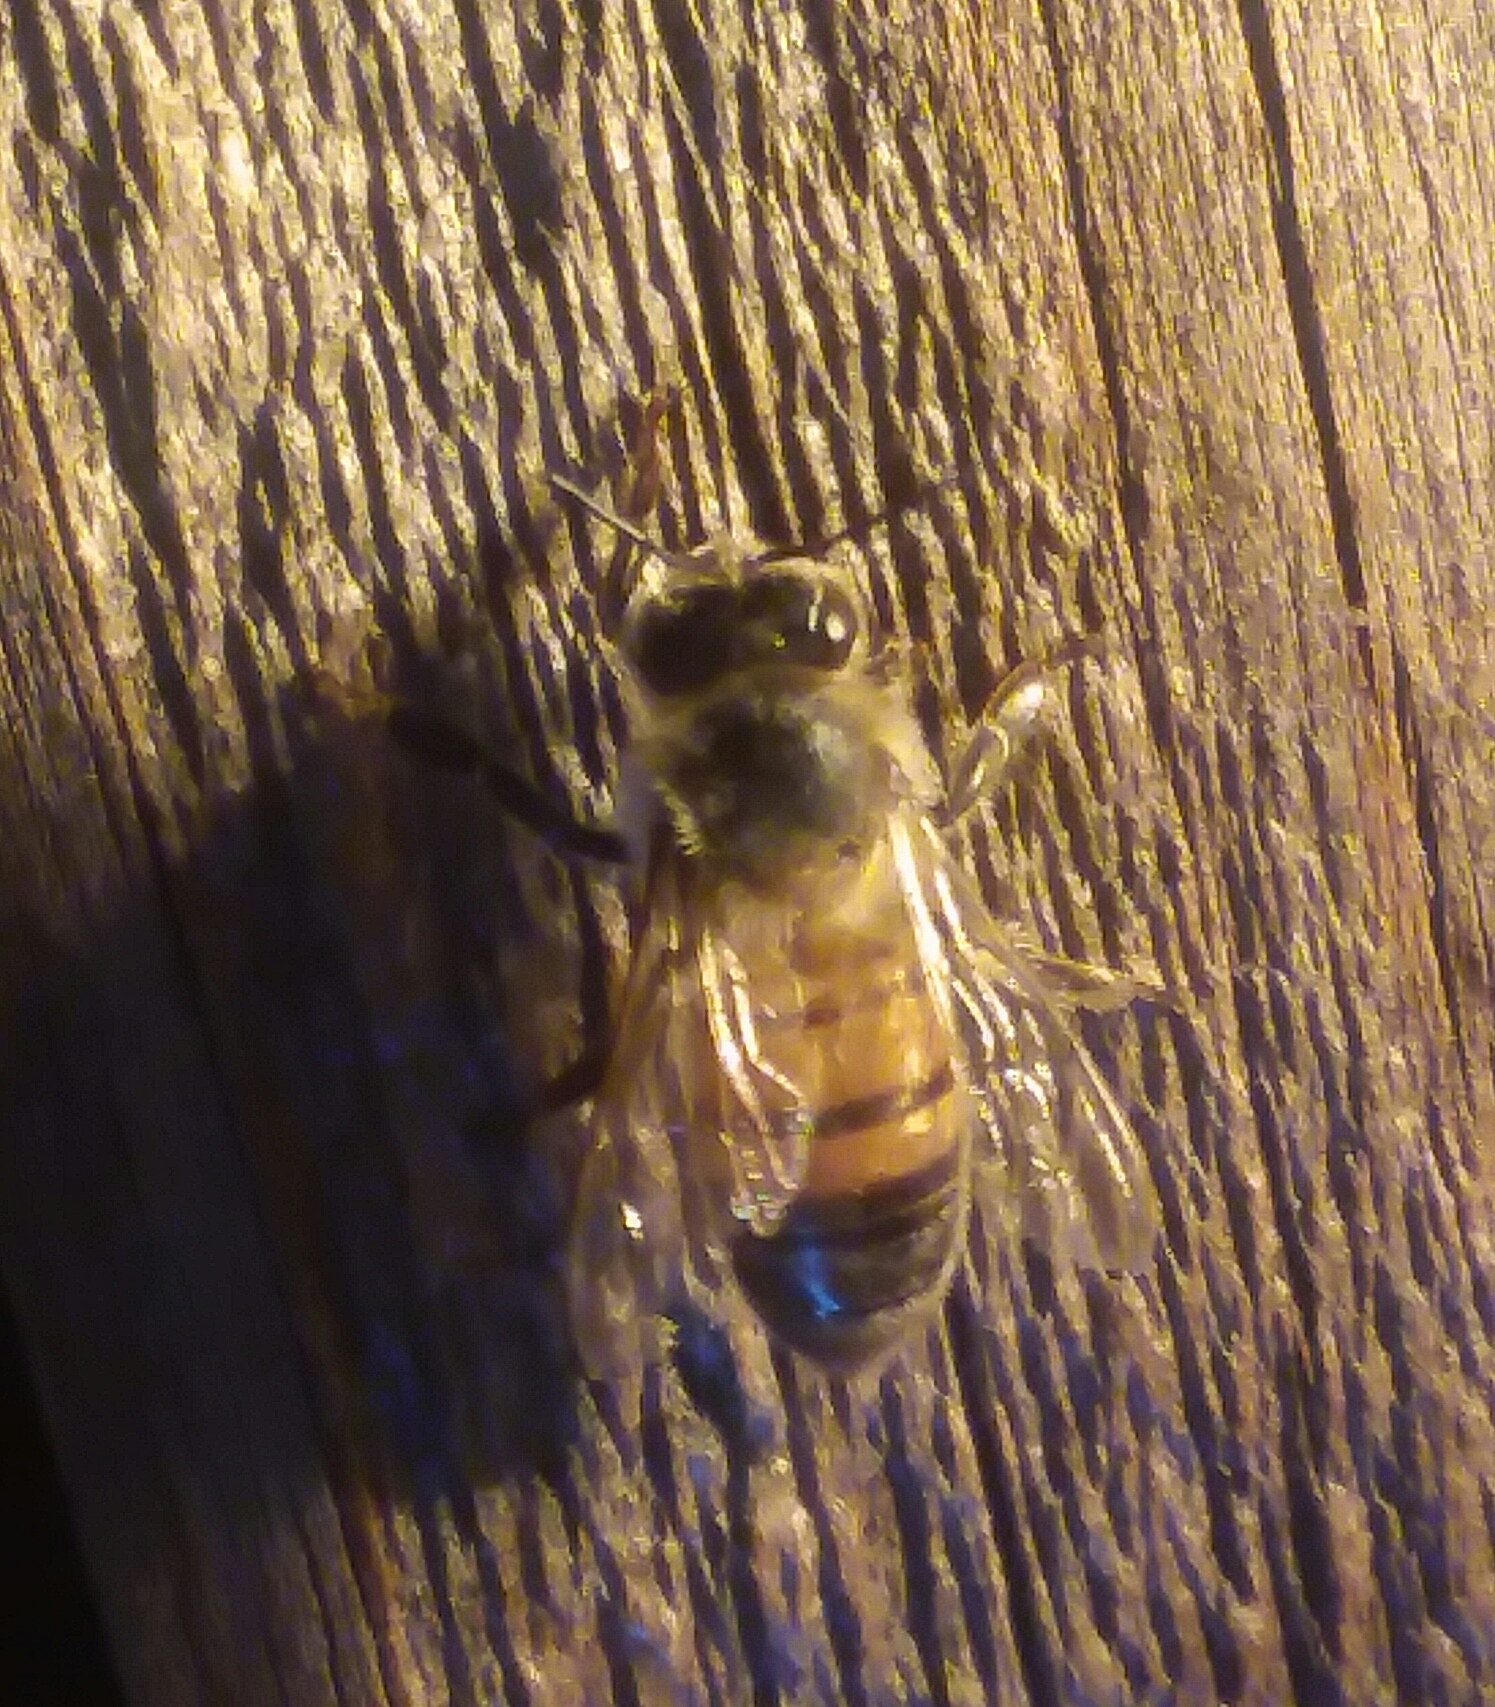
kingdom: Animalia
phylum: Arthropoda
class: Insecta
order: Hymenoptera
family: Apidae
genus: Apis
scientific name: Apis mellifera
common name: Honey bee
